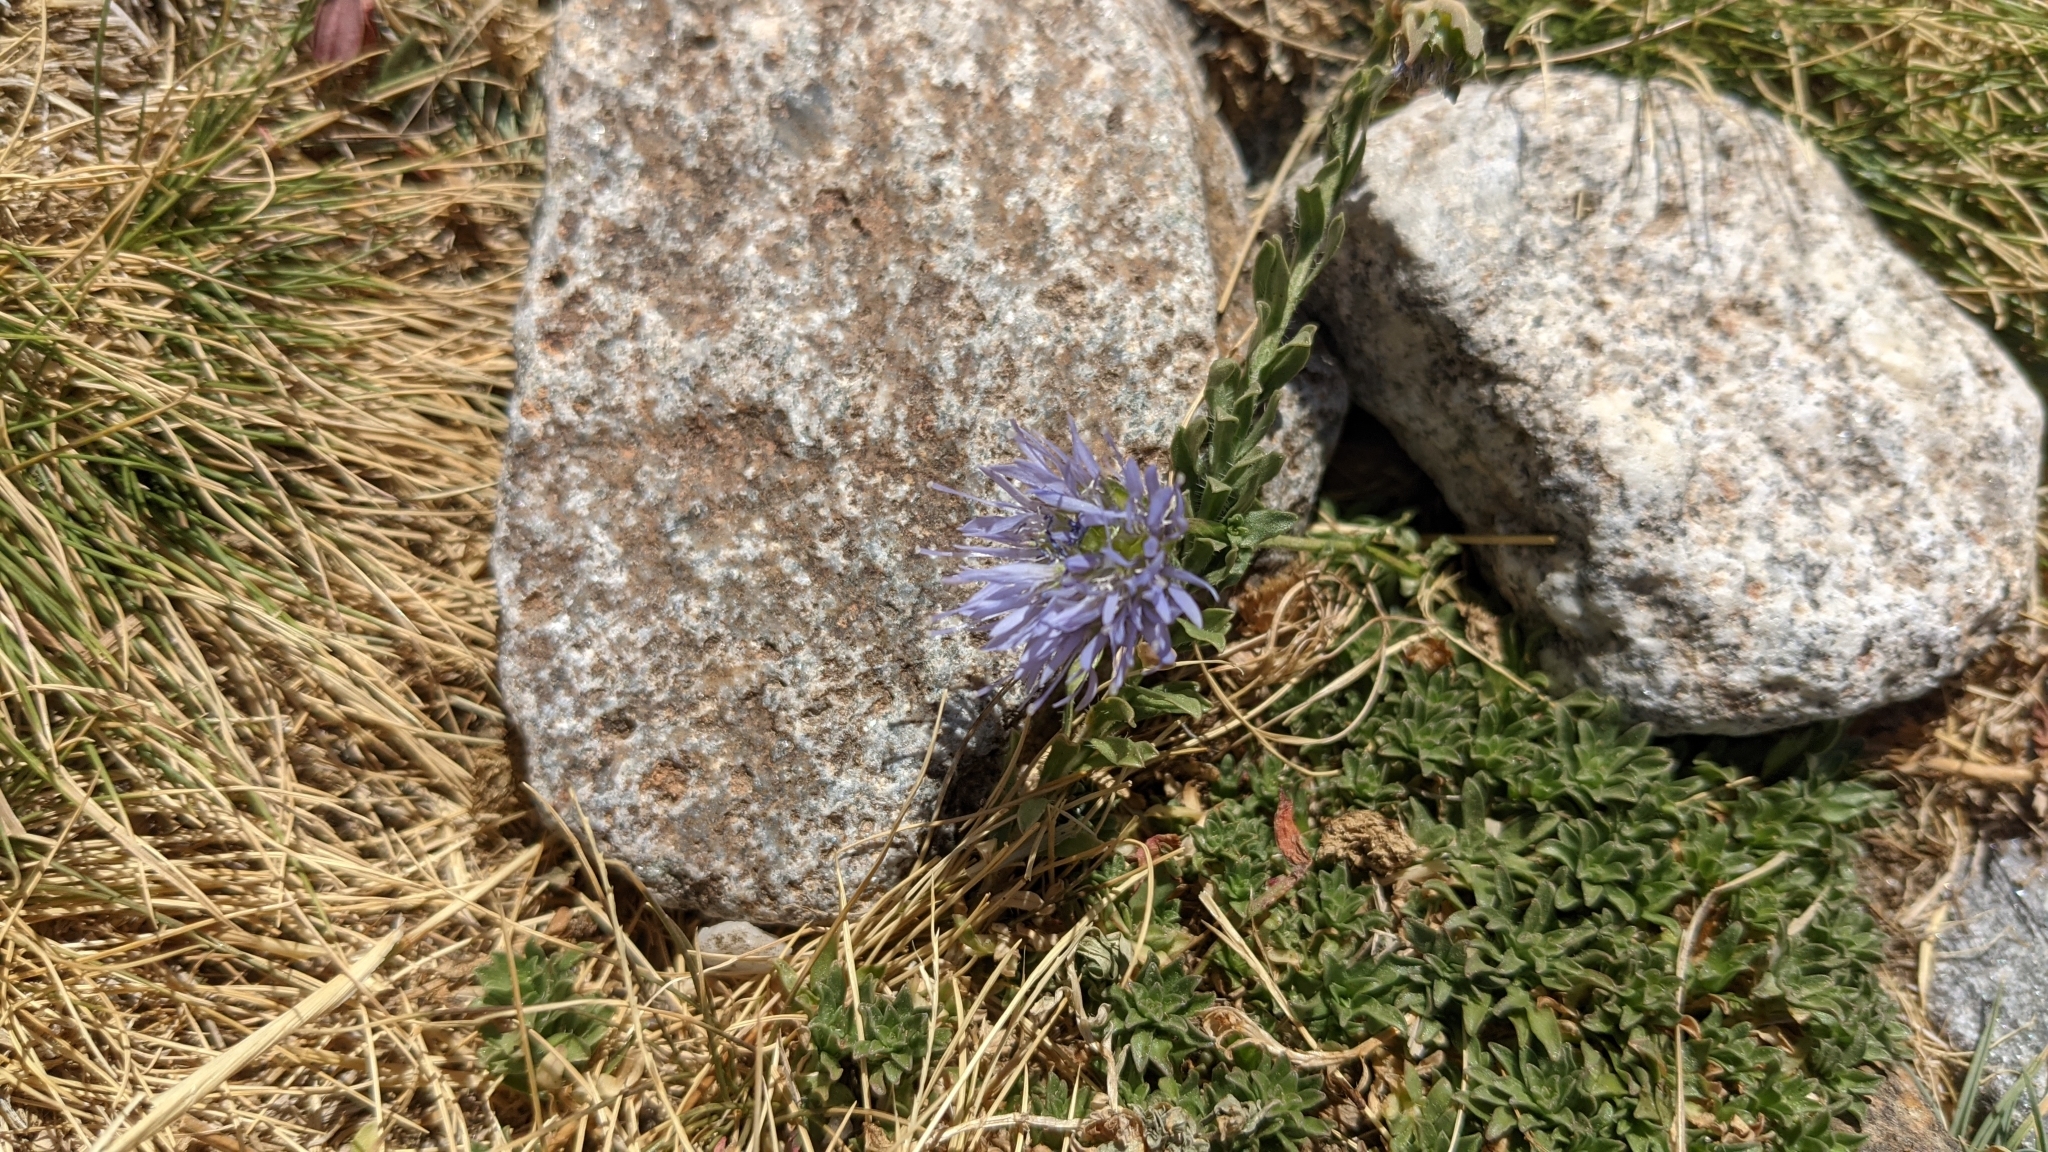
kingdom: Plantae
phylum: Tracheophyta
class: Magnoliopsida
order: Asterales
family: Campanulaceae
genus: Jasione
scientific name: Jasione crispa
